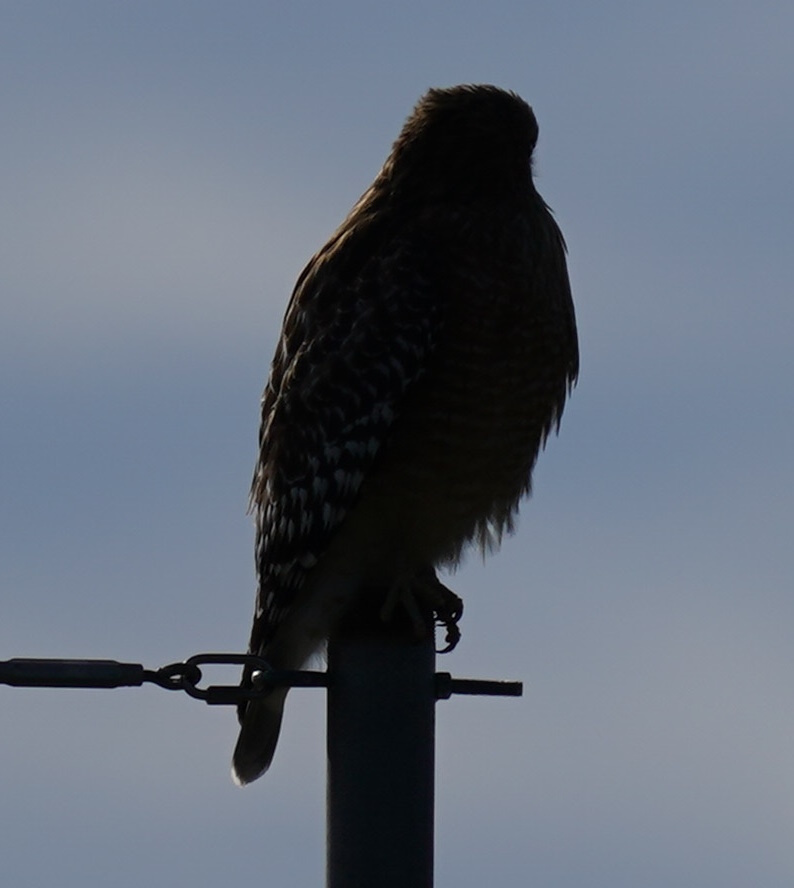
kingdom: Animalia
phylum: Chordata
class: Aves
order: Accipitriformes
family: Accipitridae
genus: Buteo
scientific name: Buteo lineatus
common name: Red-shouldered hawk
